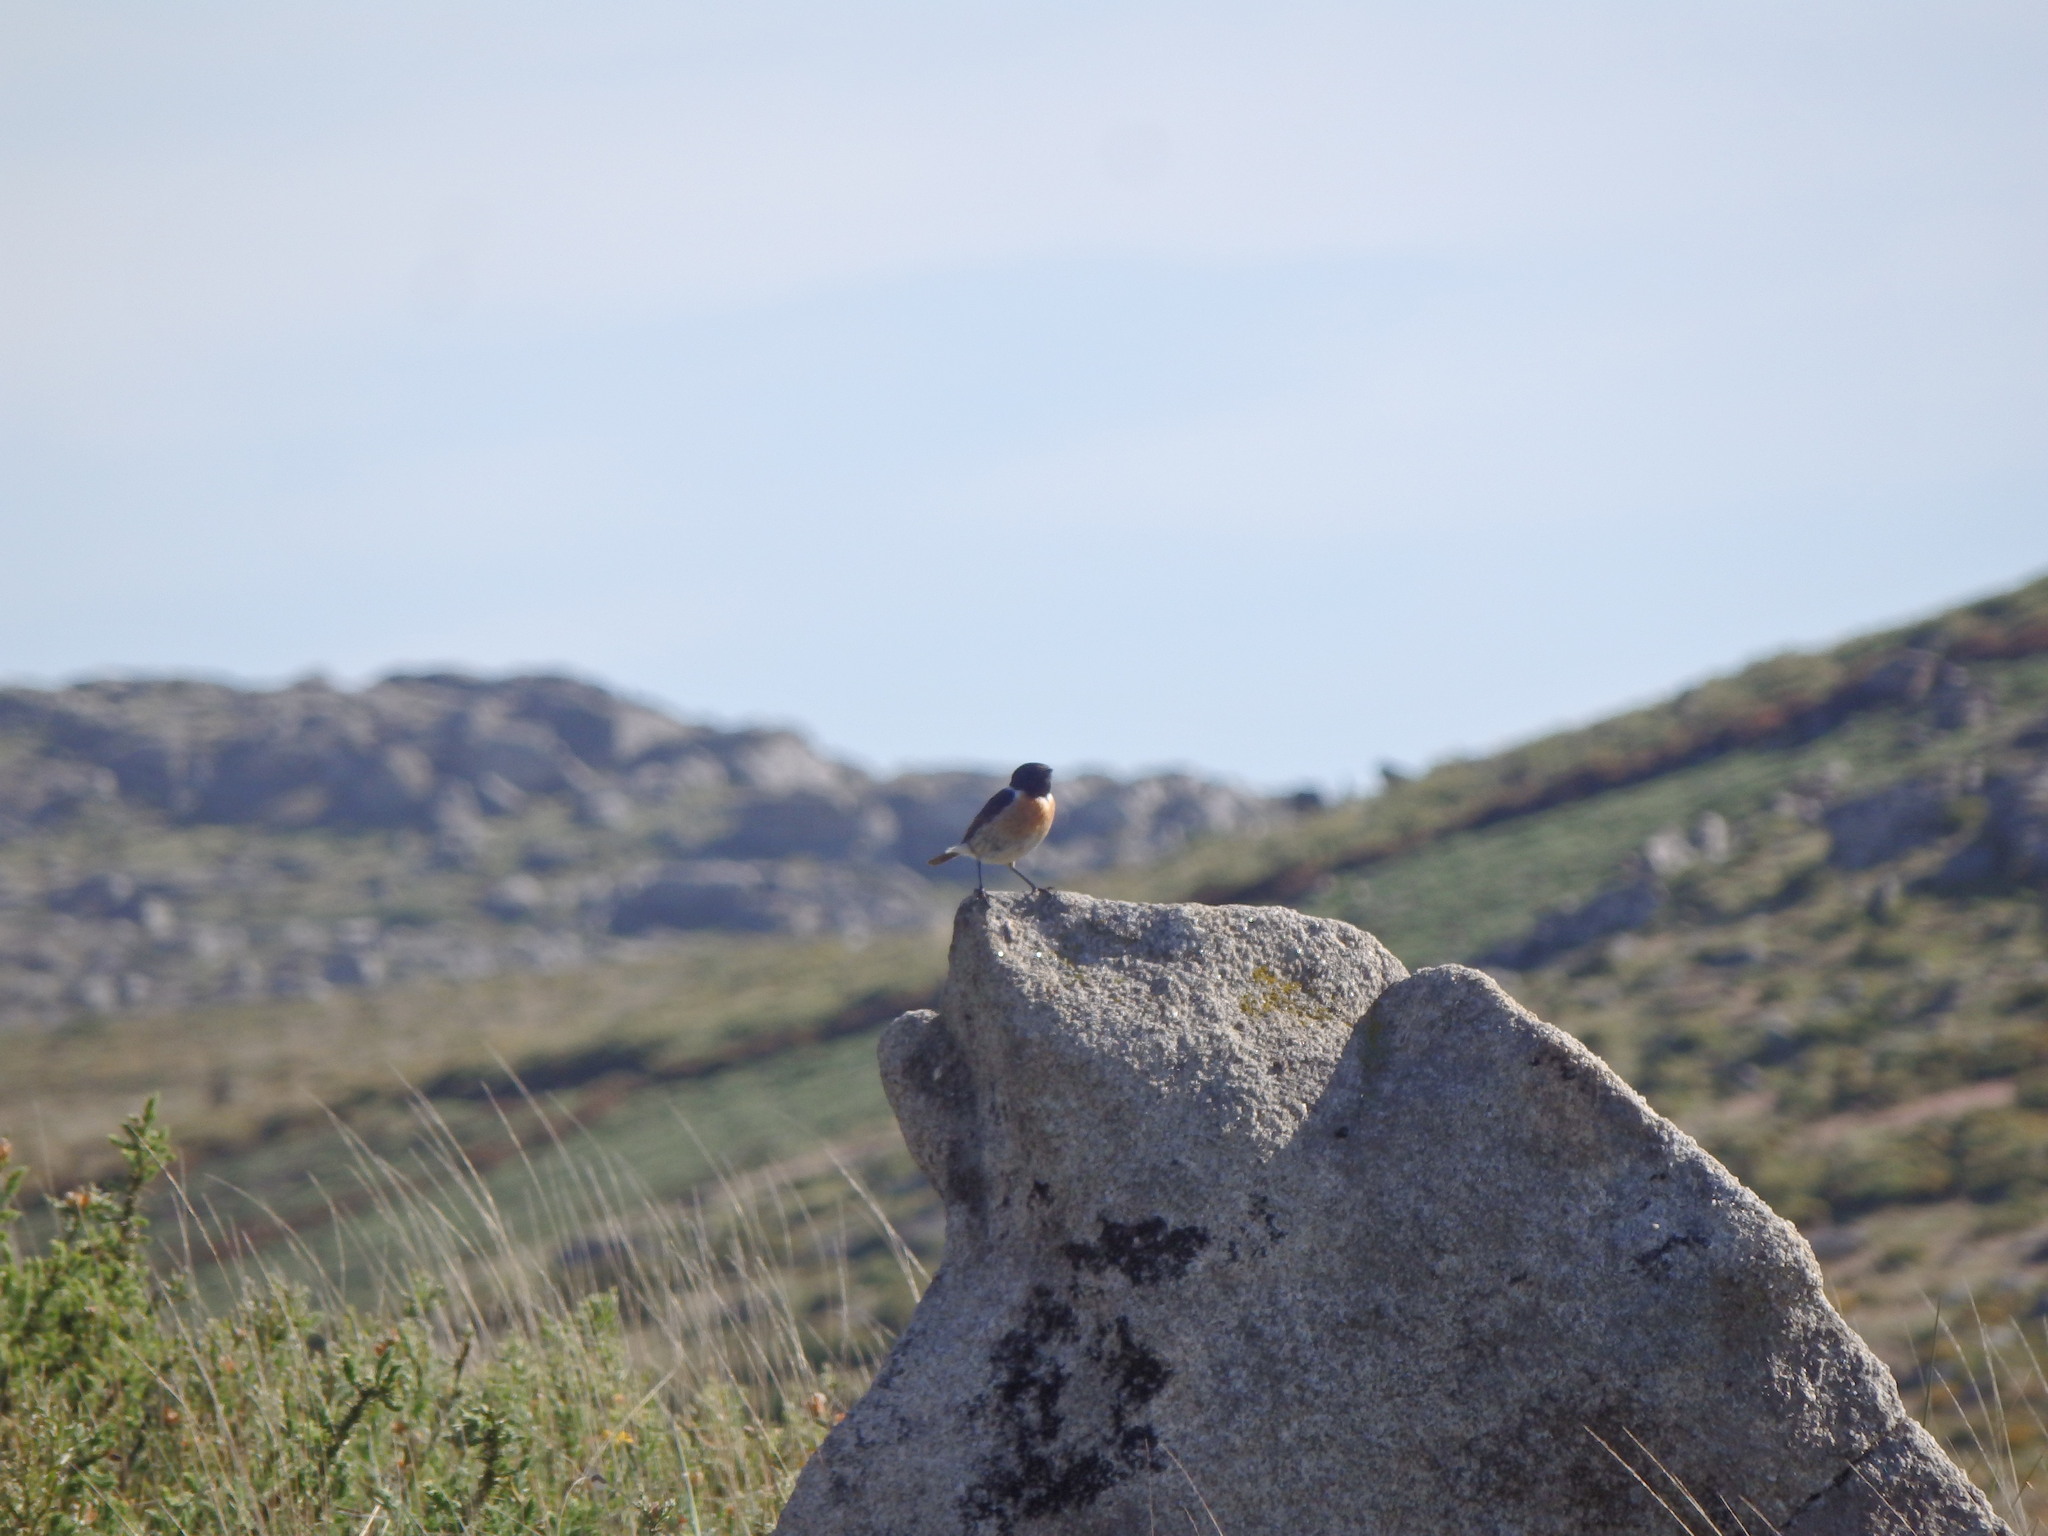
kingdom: Animalia
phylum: Chordata
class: Aves
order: Passeriformes
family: Muscicapidae
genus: Saxicola
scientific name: Saxicola rubicola
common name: European stonechat
